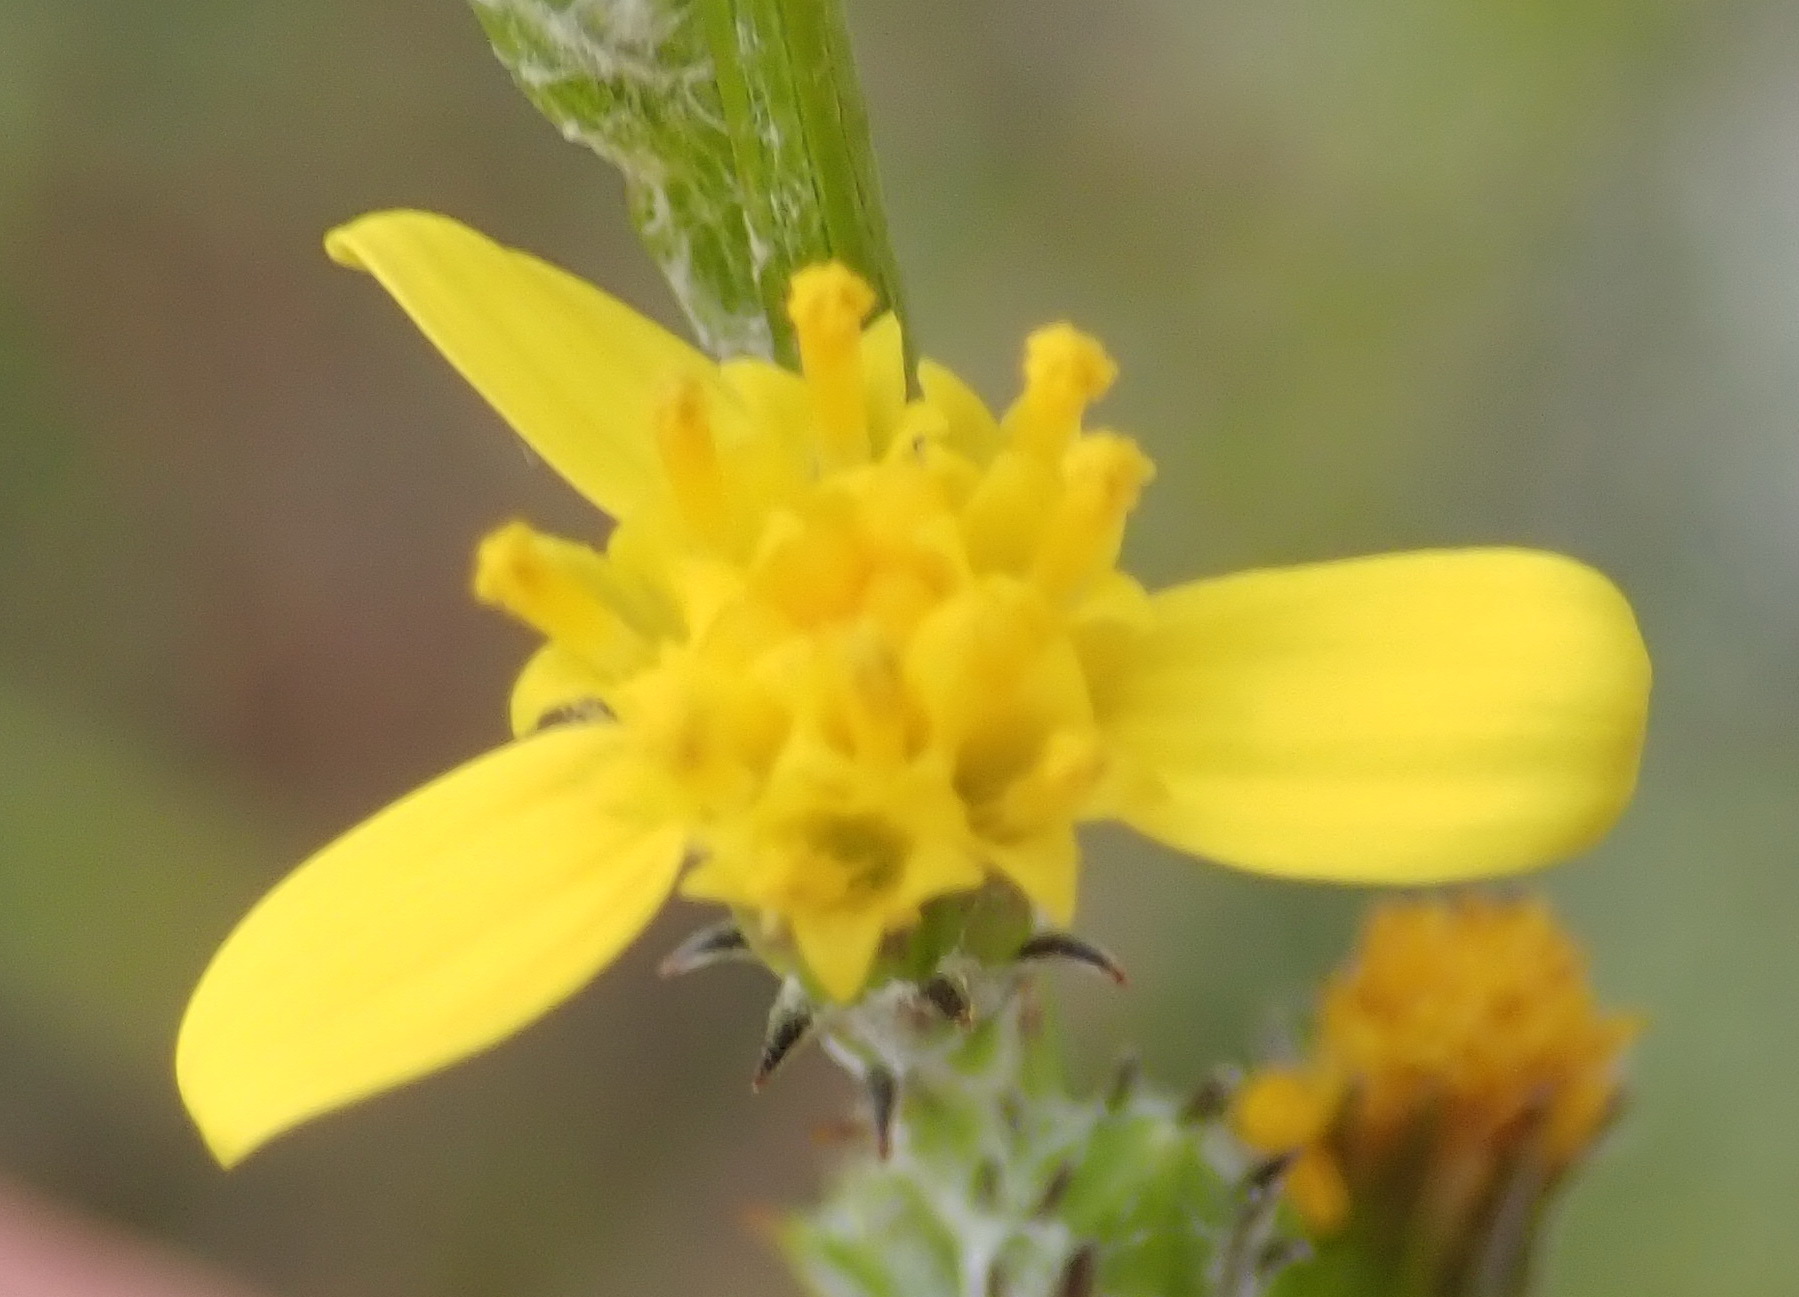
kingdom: Plantae
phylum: Tracheophyta
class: Magnoliopsida
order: Asterales
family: Asteraceae
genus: Senecio
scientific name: Senecio pubigerus
